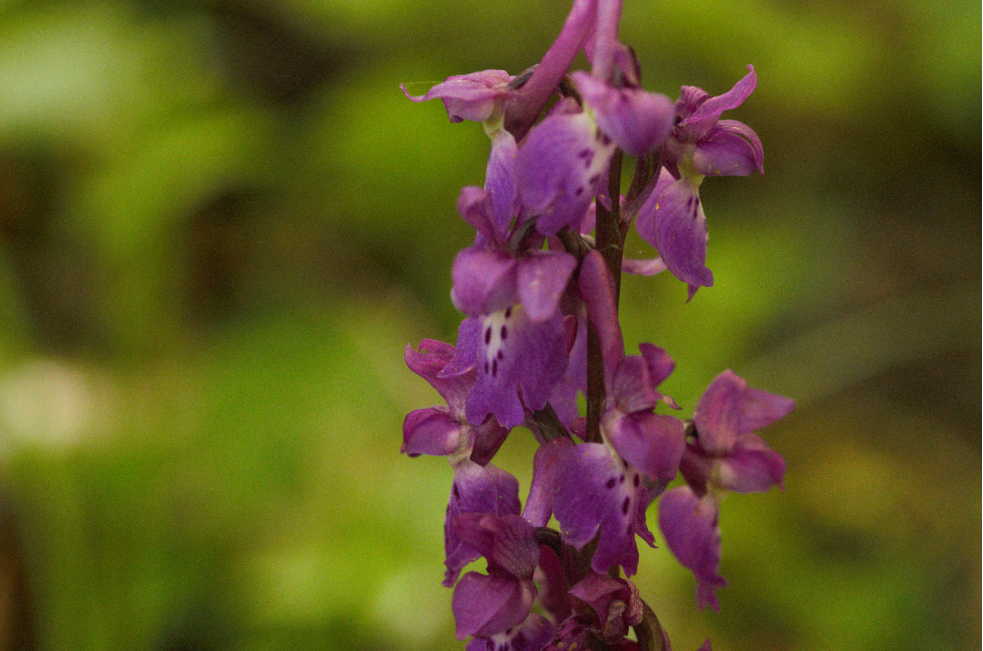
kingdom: Plantae
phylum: Tracheophyta
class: Liliopsida
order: Asparagales
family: Orchidaceae
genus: Orchis
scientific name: Orchis mascula
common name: Early-purple orchid
